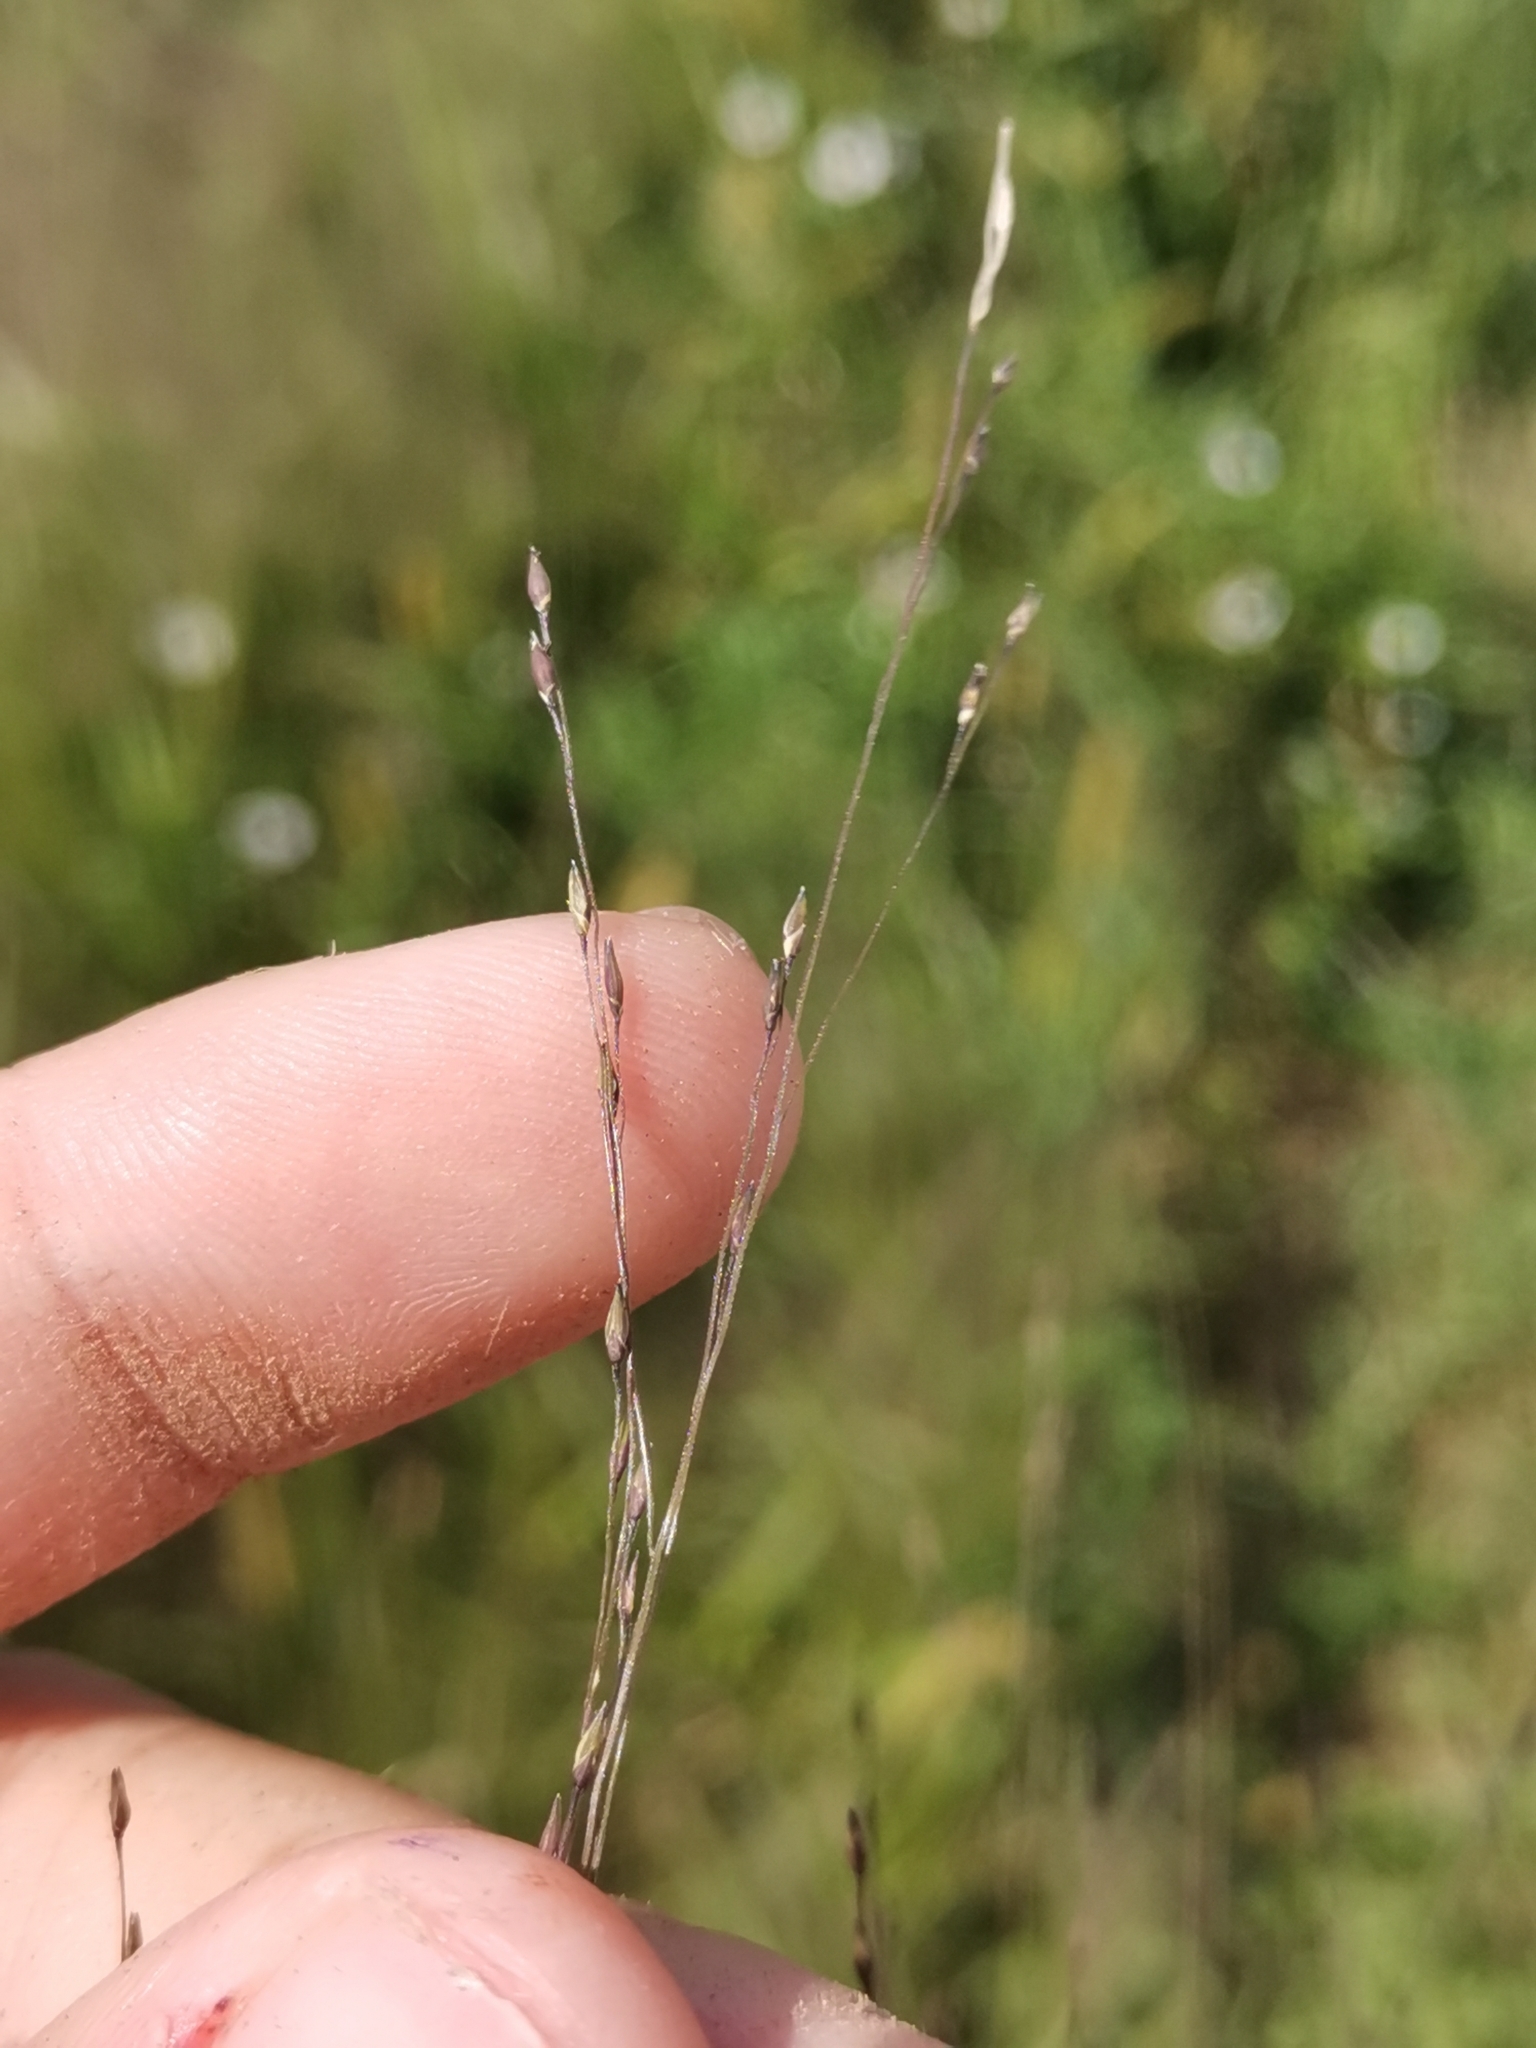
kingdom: Plantae
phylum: Tracheophyta
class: Liliopsida
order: Poales
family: Poaceae
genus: Panicum
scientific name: Panicum capillare
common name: Witch-grass
